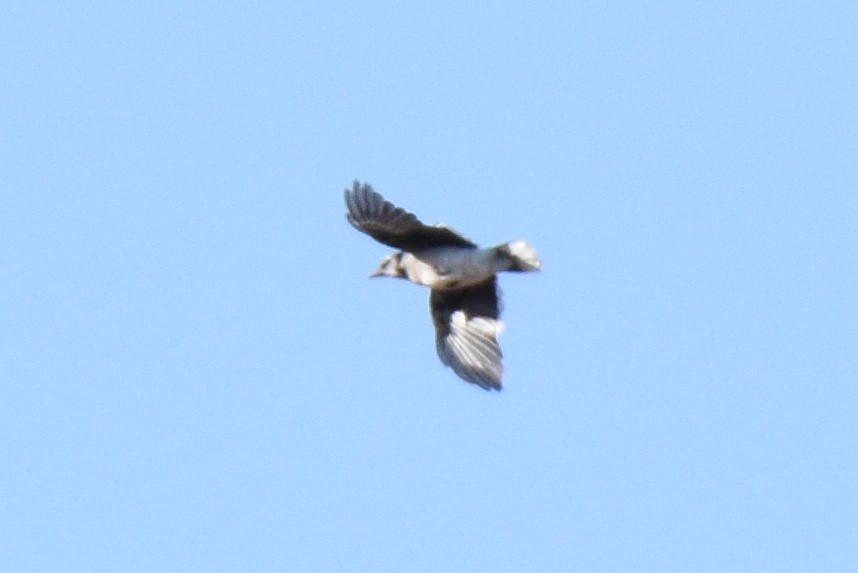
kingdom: Animalia
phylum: Chordata
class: Aves
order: Passeriformes
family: Corvidae
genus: Cyanocitta
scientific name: Cyanocitta cristata
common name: Blue jay
